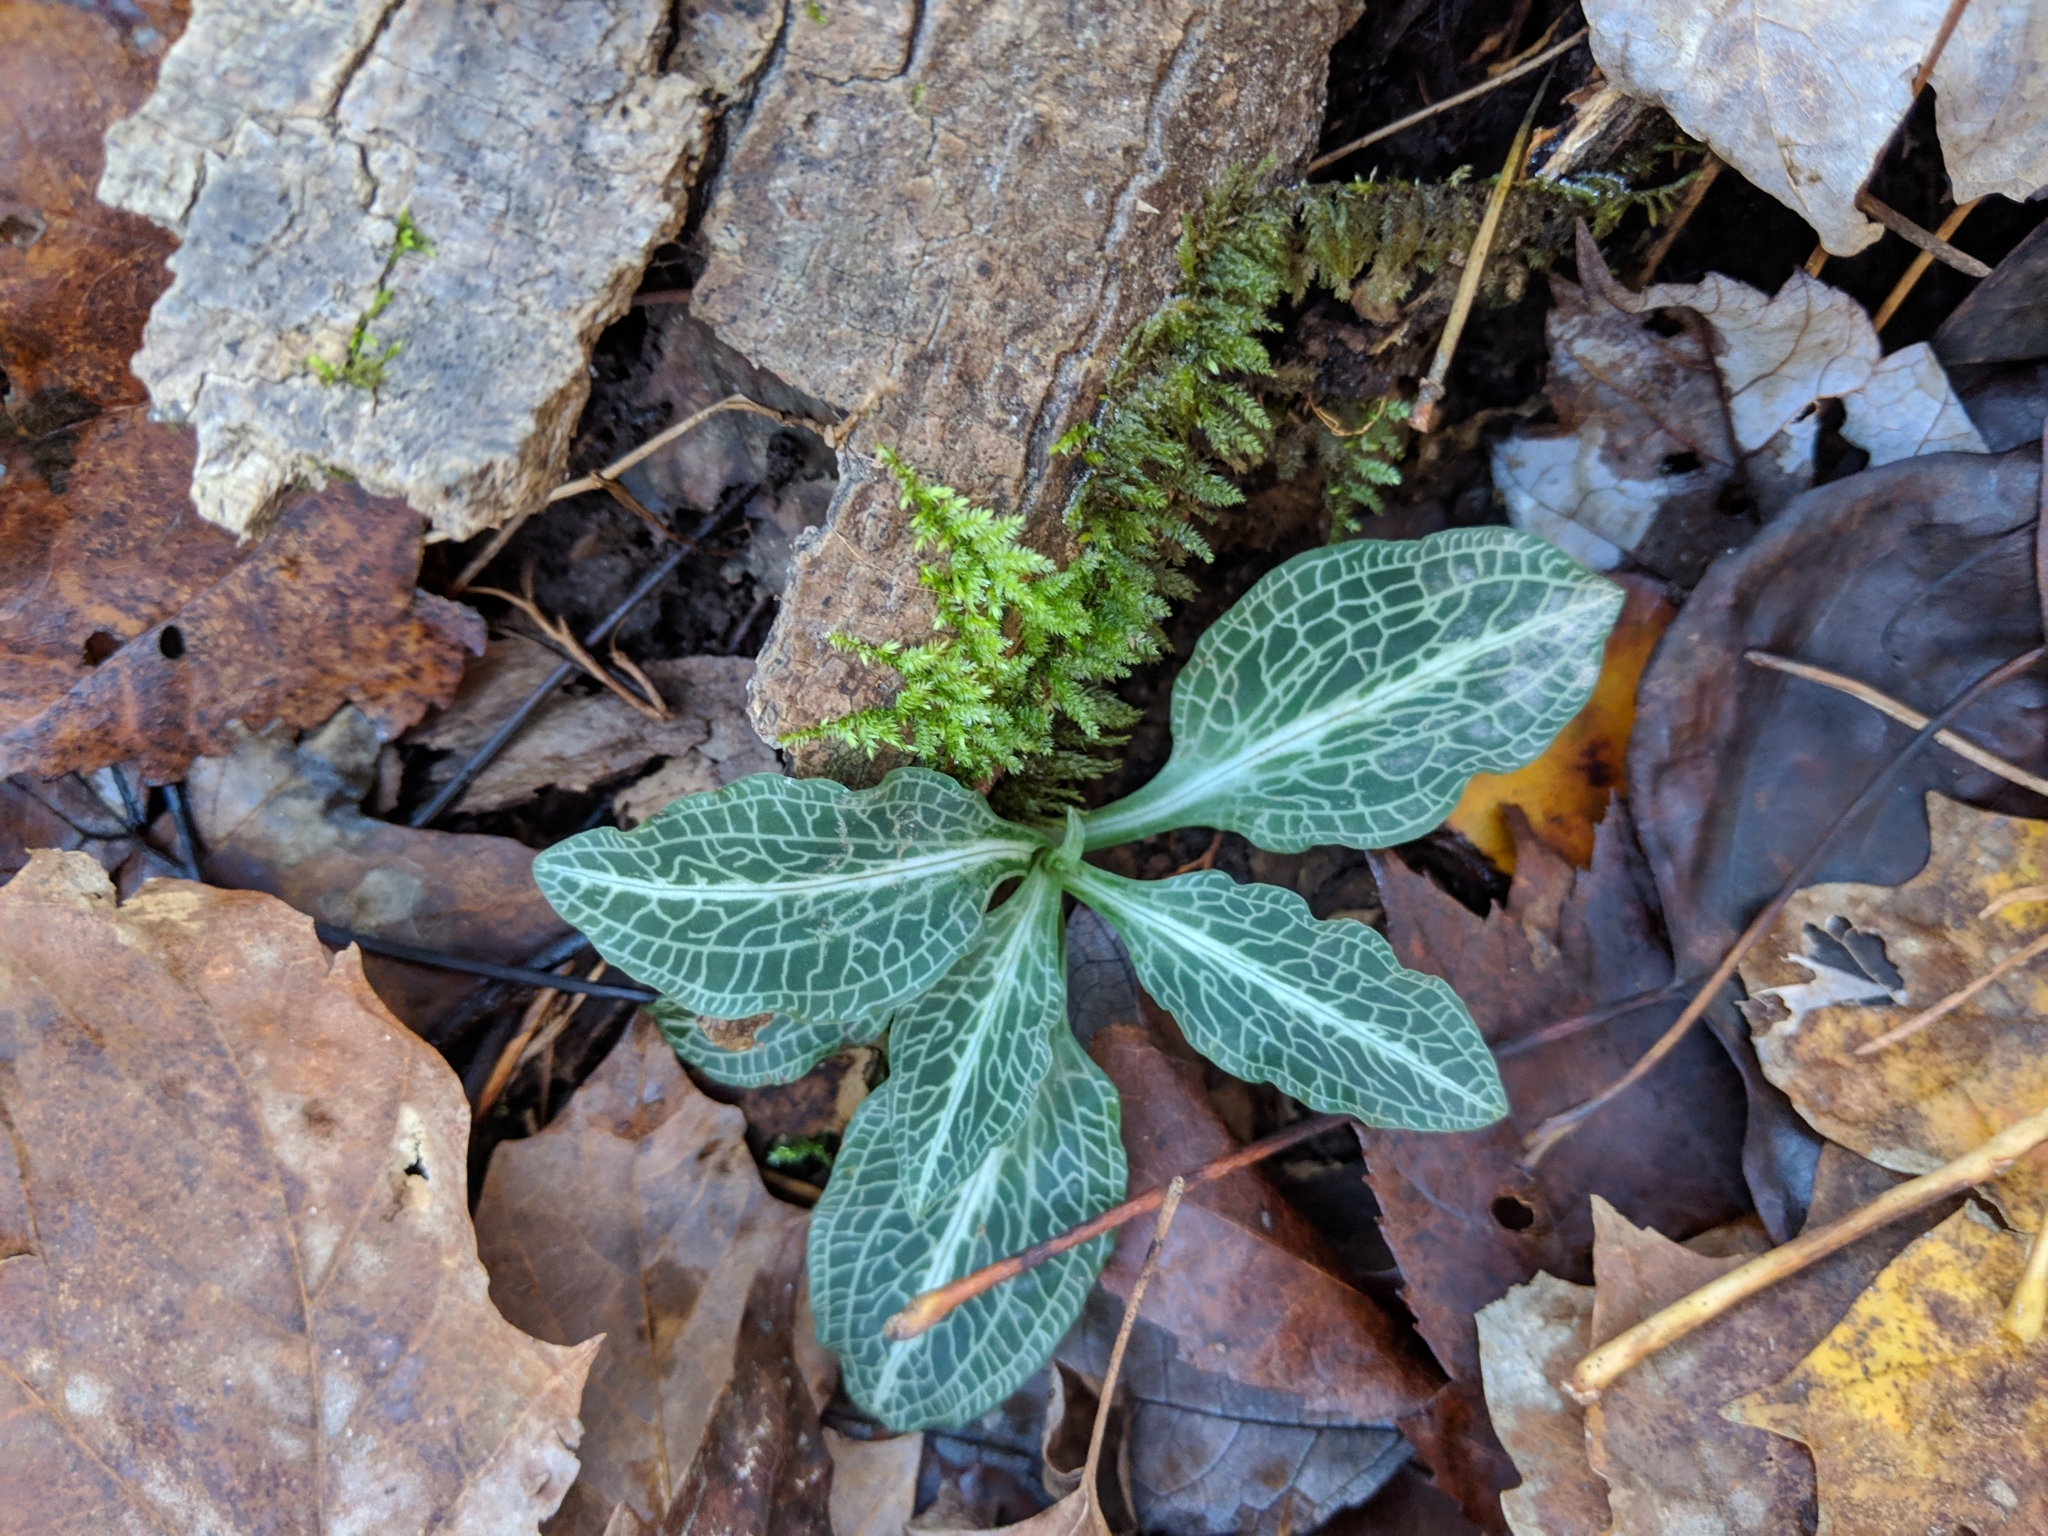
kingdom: Plantae
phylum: Tracheophyta
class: Liliopsida
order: Asparagales
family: Orchidaceae
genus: Goodyera
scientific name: Goodyera pubescens
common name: Downy rattlesnake-plantain
